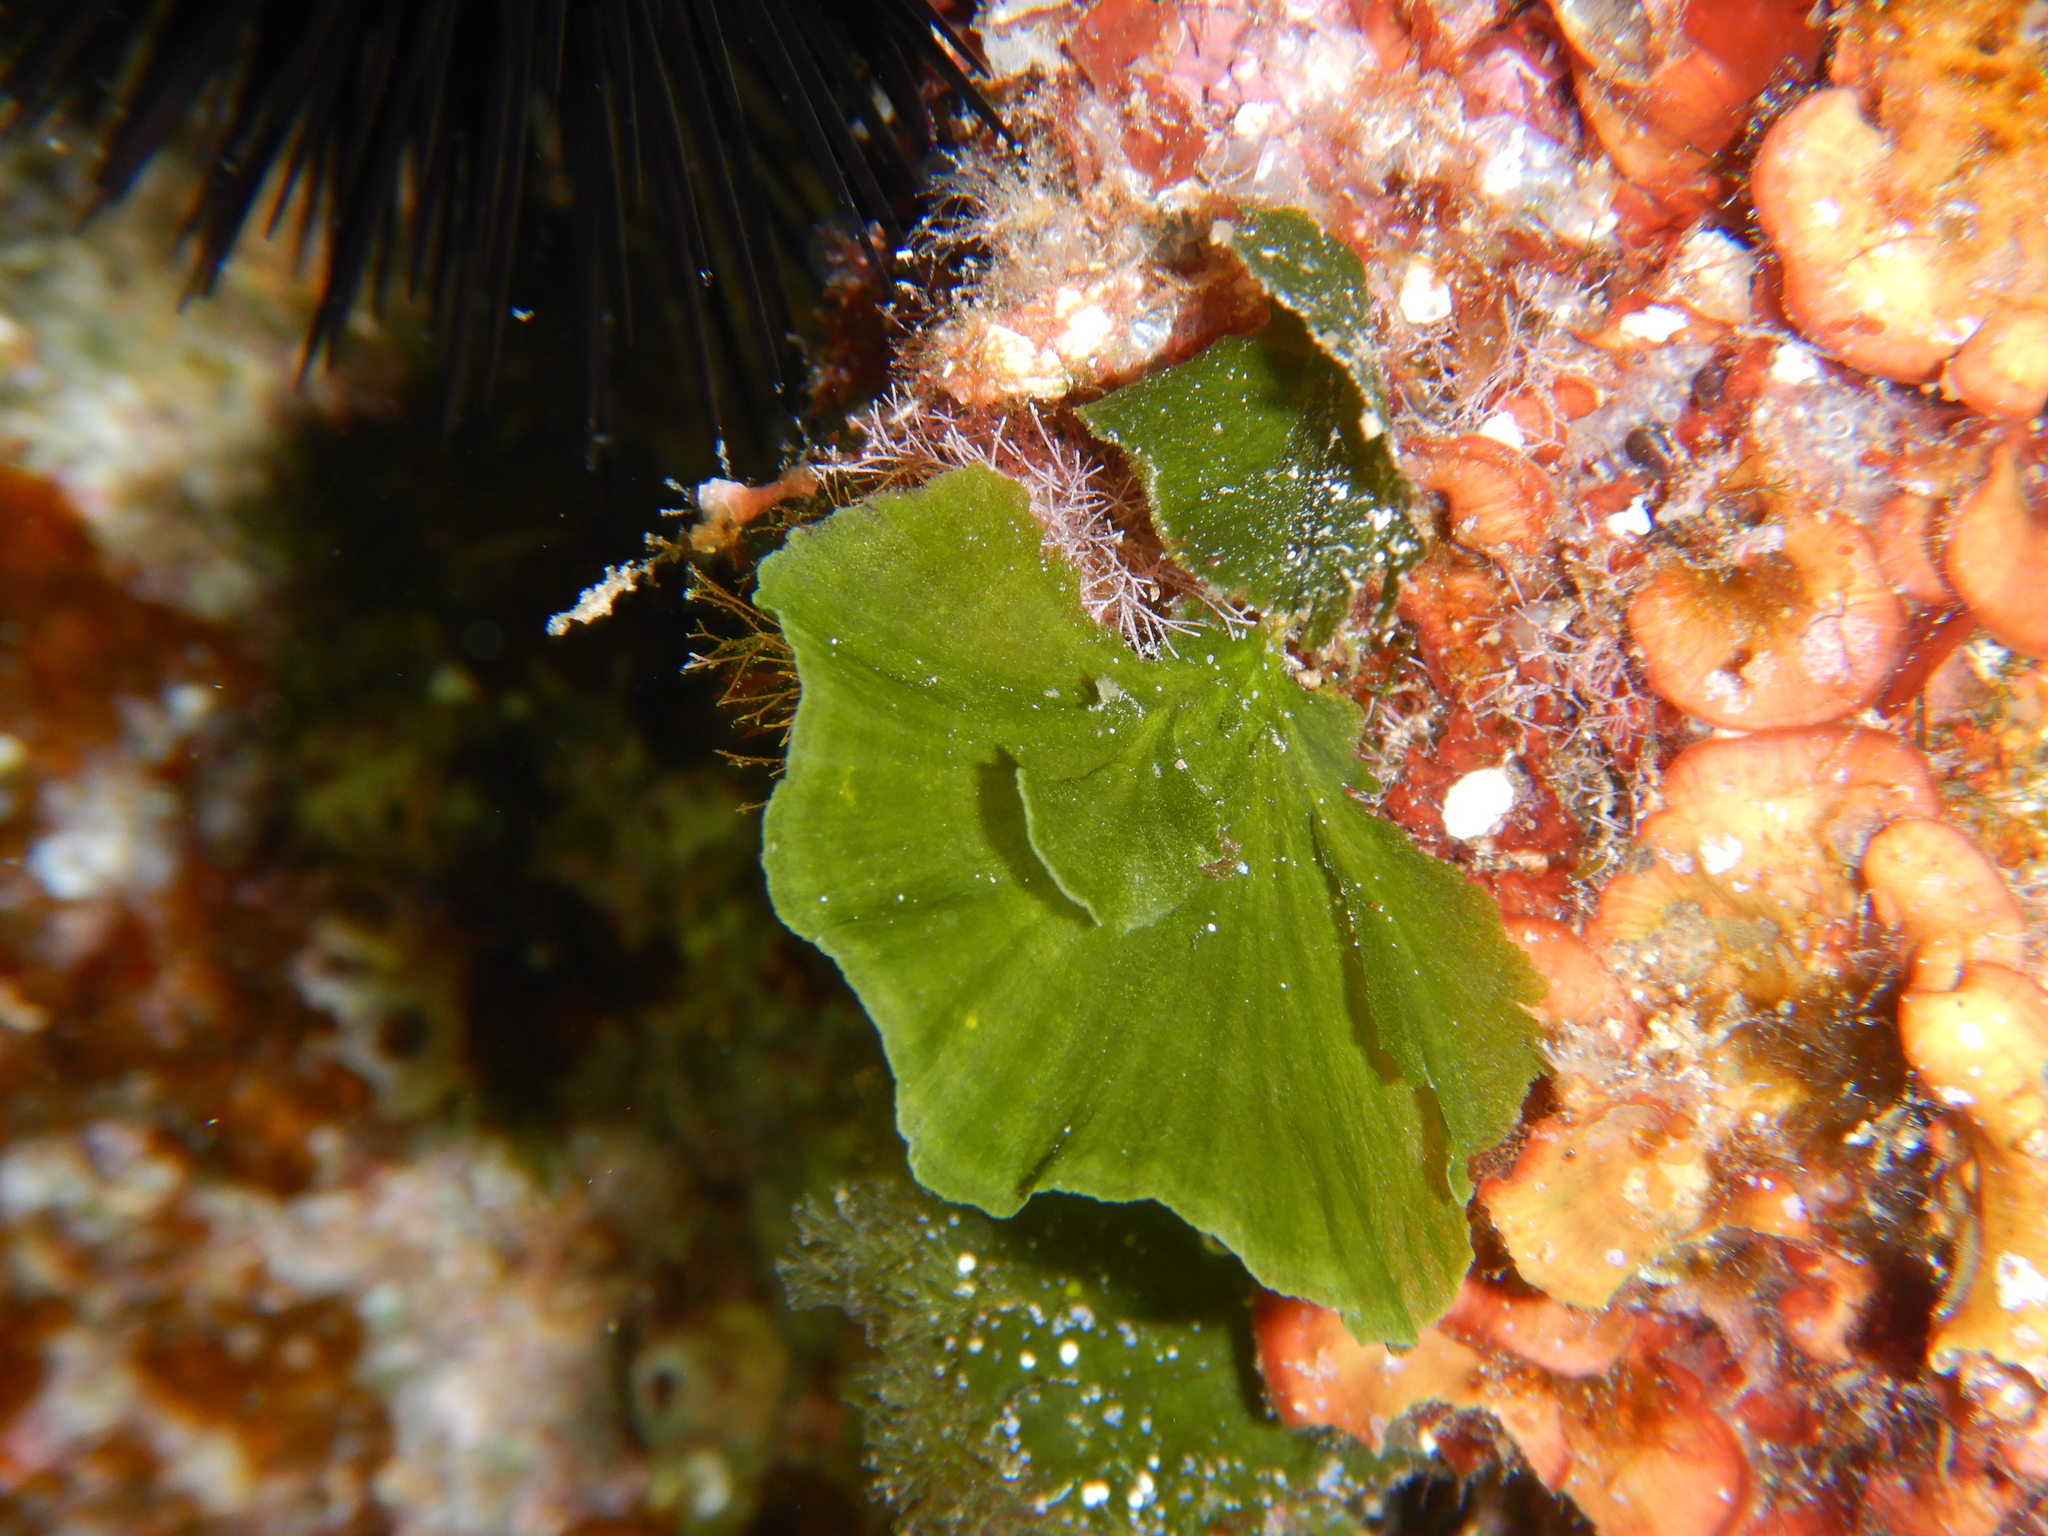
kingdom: Plantae
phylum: Chlorophyta
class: Ulvophyceae
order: Bryopsidales
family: Codiaceae
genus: Codium
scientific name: Codium Flabellia petiolata
